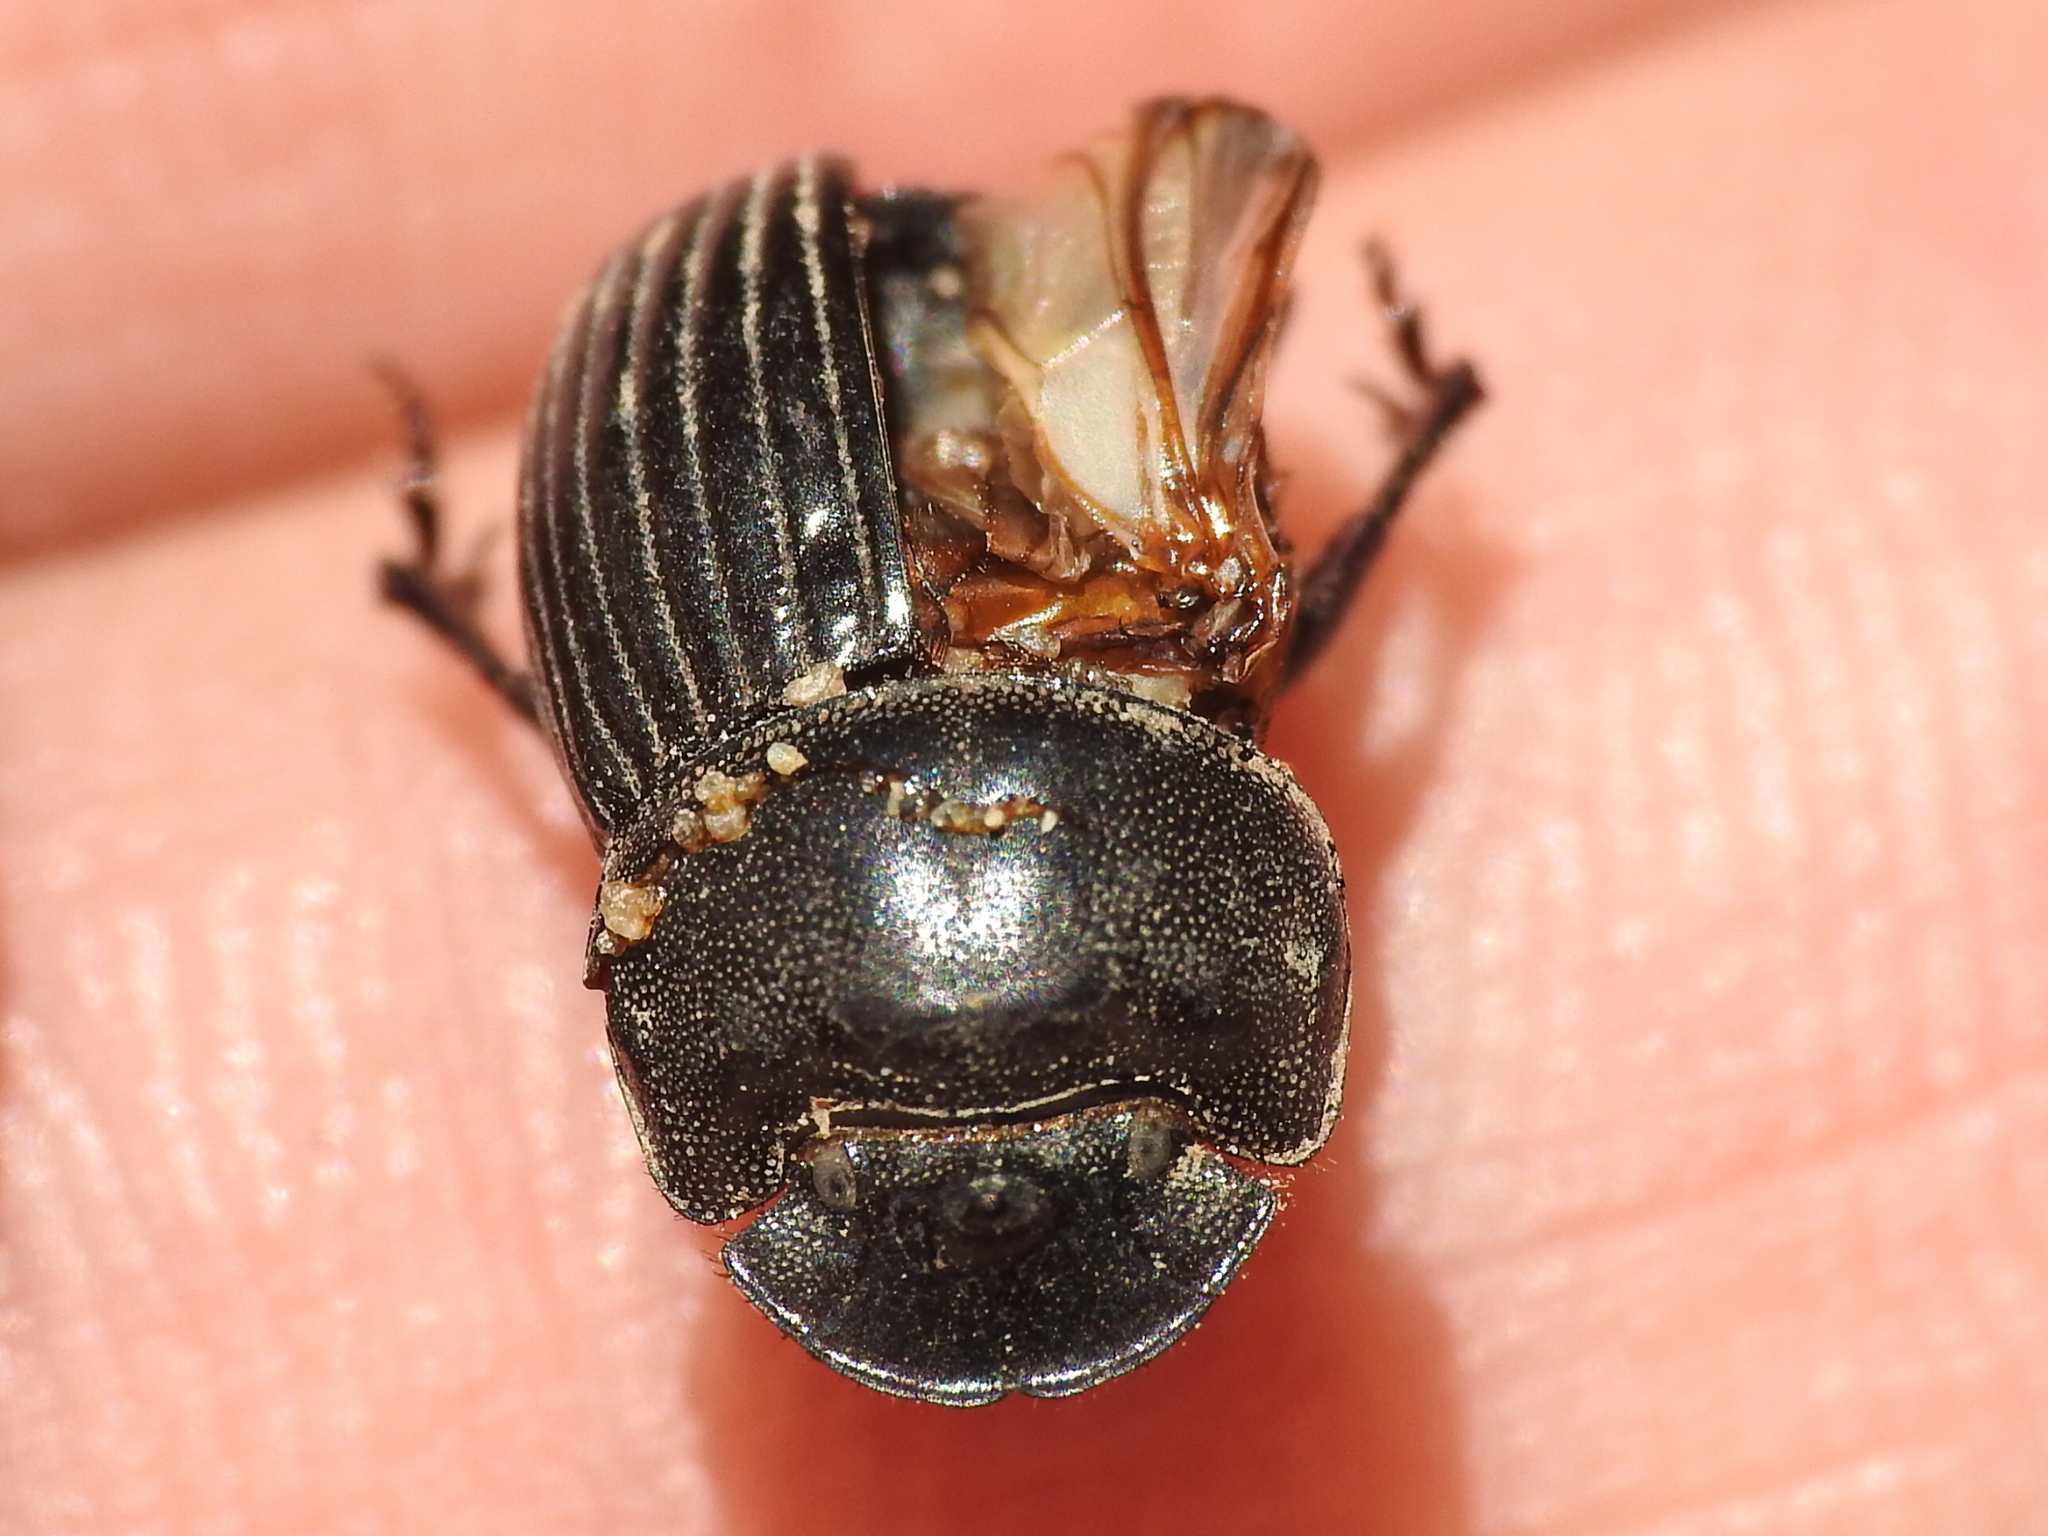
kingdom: Animalia
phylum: Arthropoda
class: Insecta
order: Coleoptera
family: Scarabaeidae
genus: Copris
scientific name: Copris fricator
